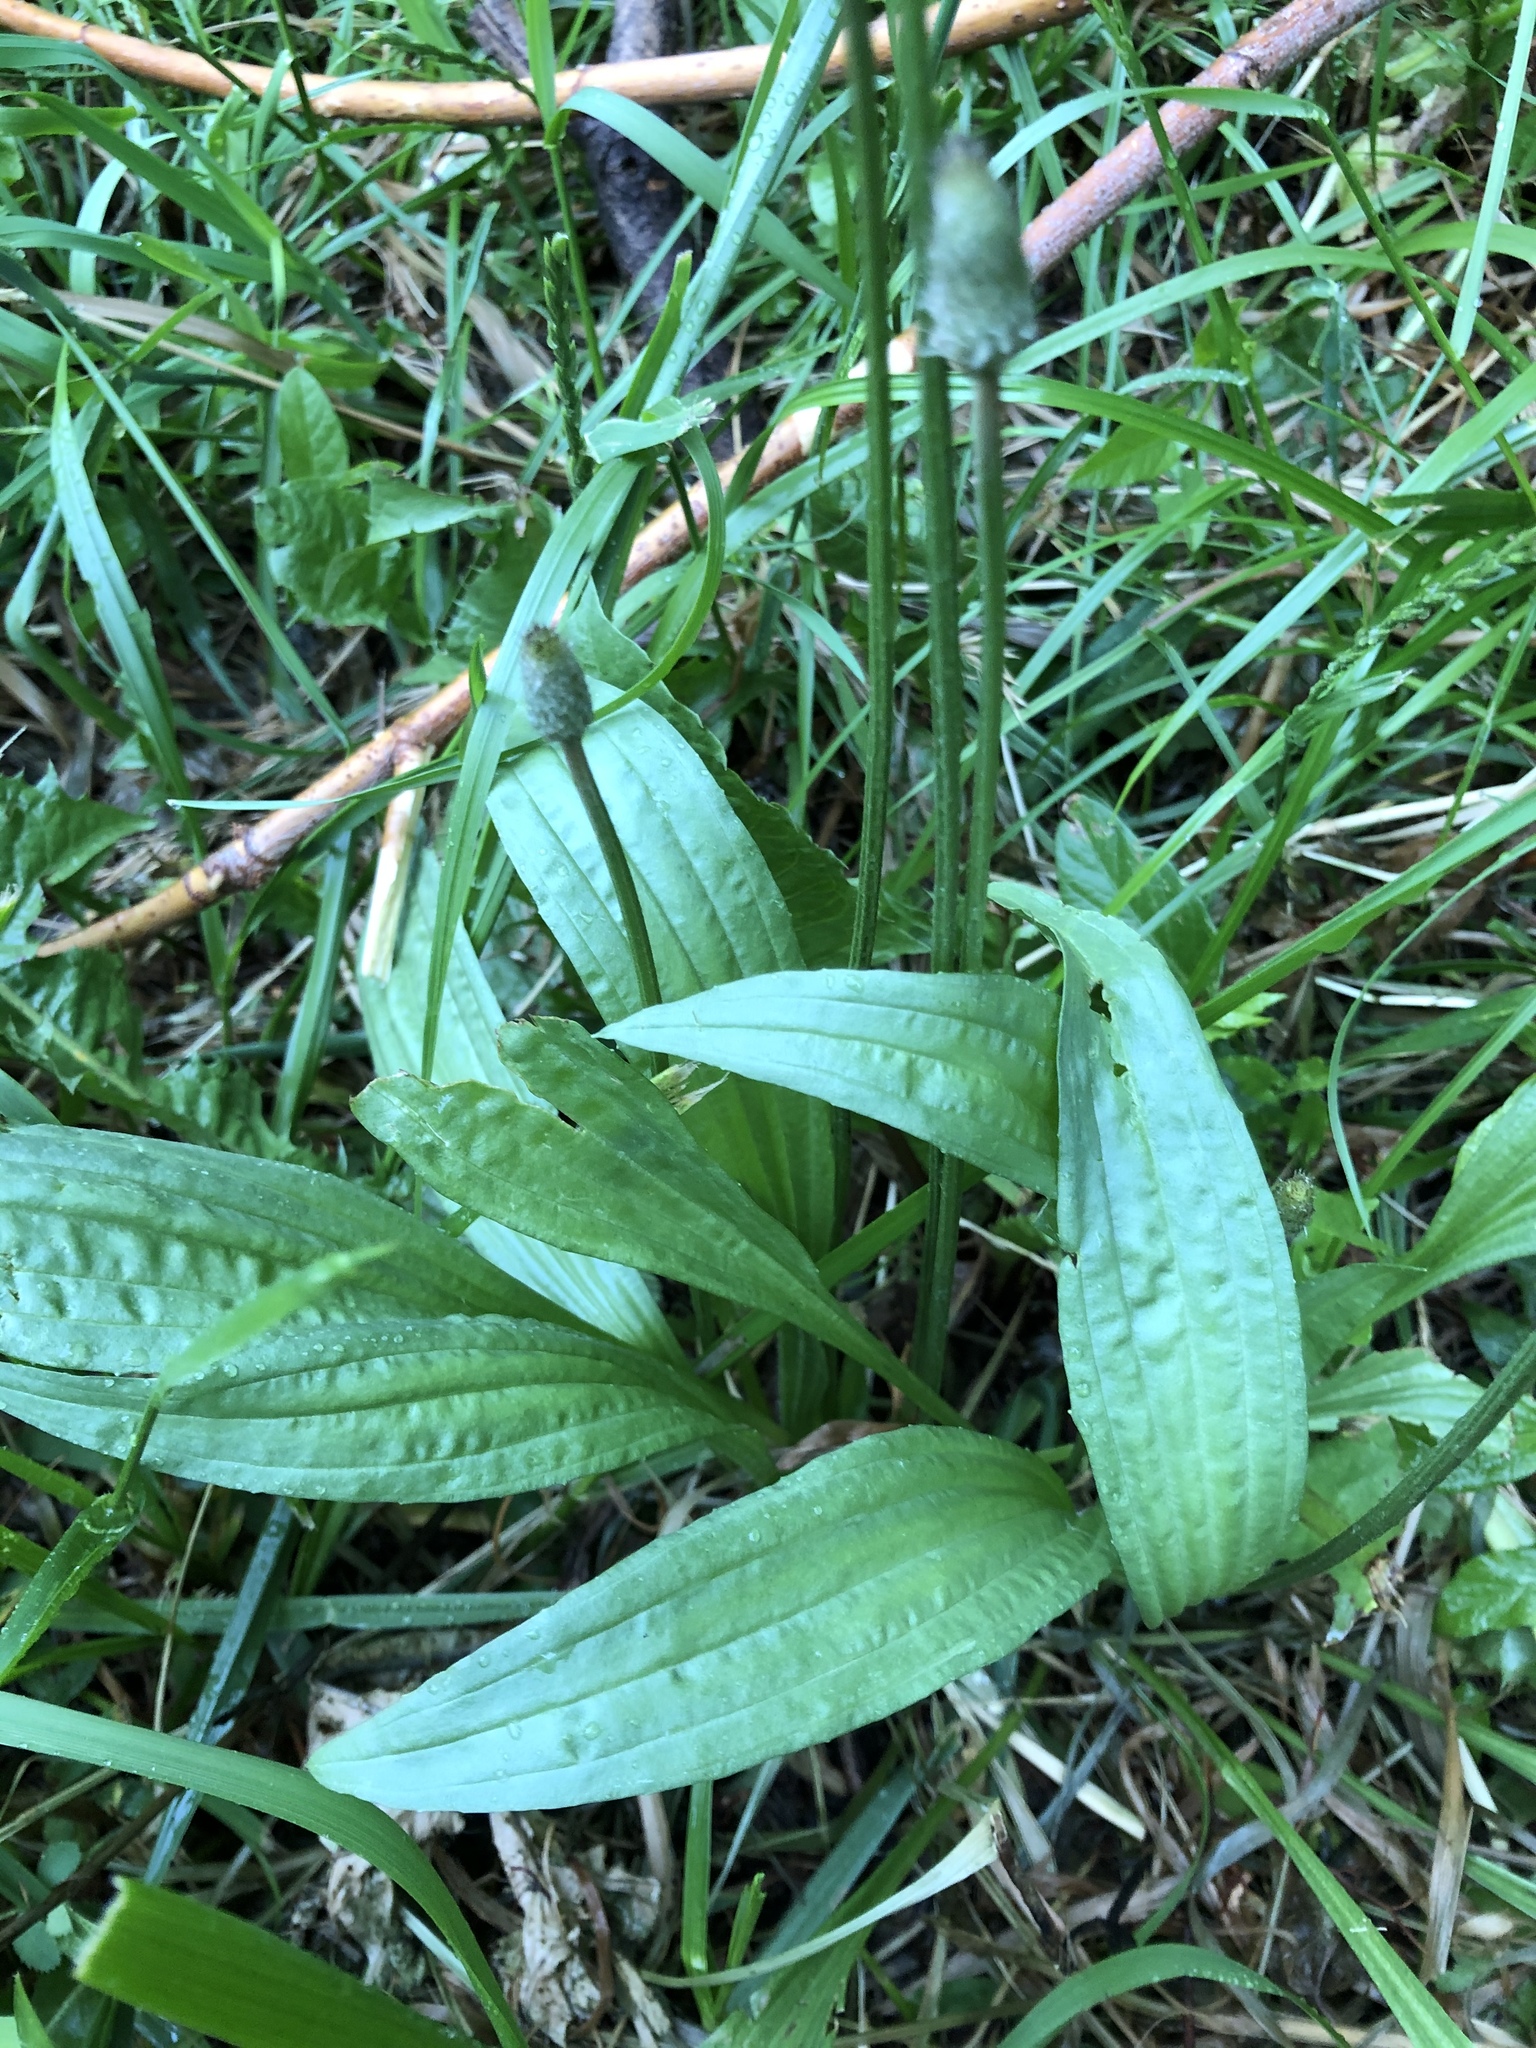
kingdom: Plantae
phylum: Tracheophyta
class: Magnoliopsida
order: Lamiales
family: Plantaginaceae
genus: Plantago
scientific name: Plantago lanceolata
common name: Ribwort plantain
